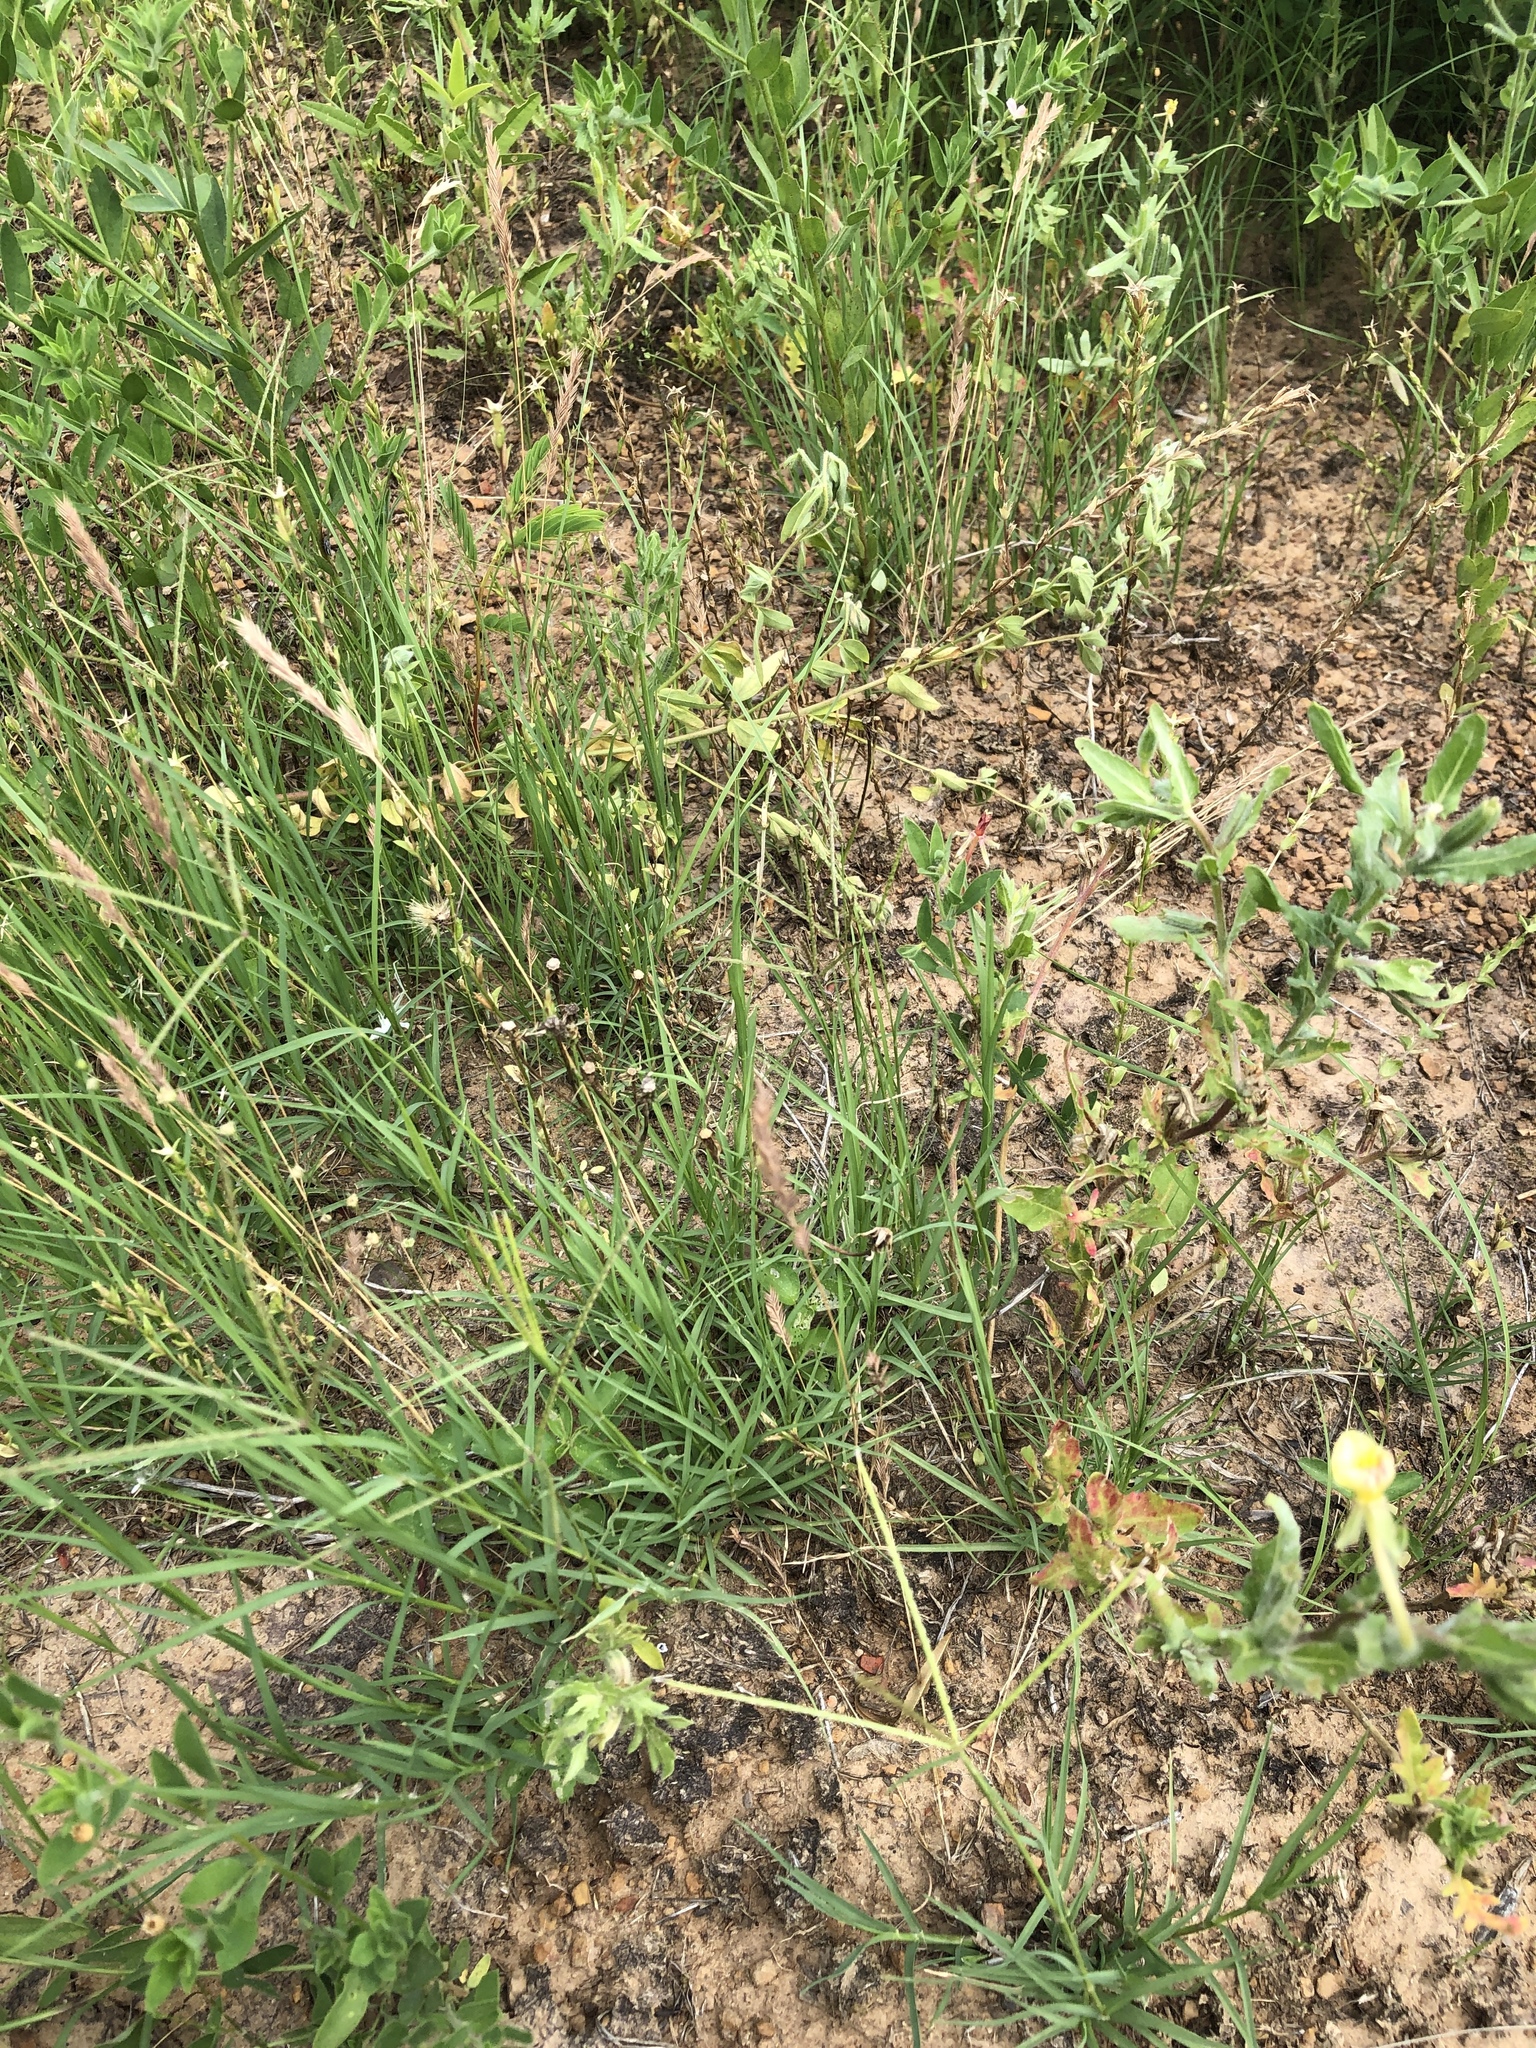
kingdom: Plantae
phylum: Tracheophyta
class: Liliopsida
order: Poales
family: Poaceae
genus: Cynodon
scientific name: Cynodon dactylon
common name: Bermuda grass
